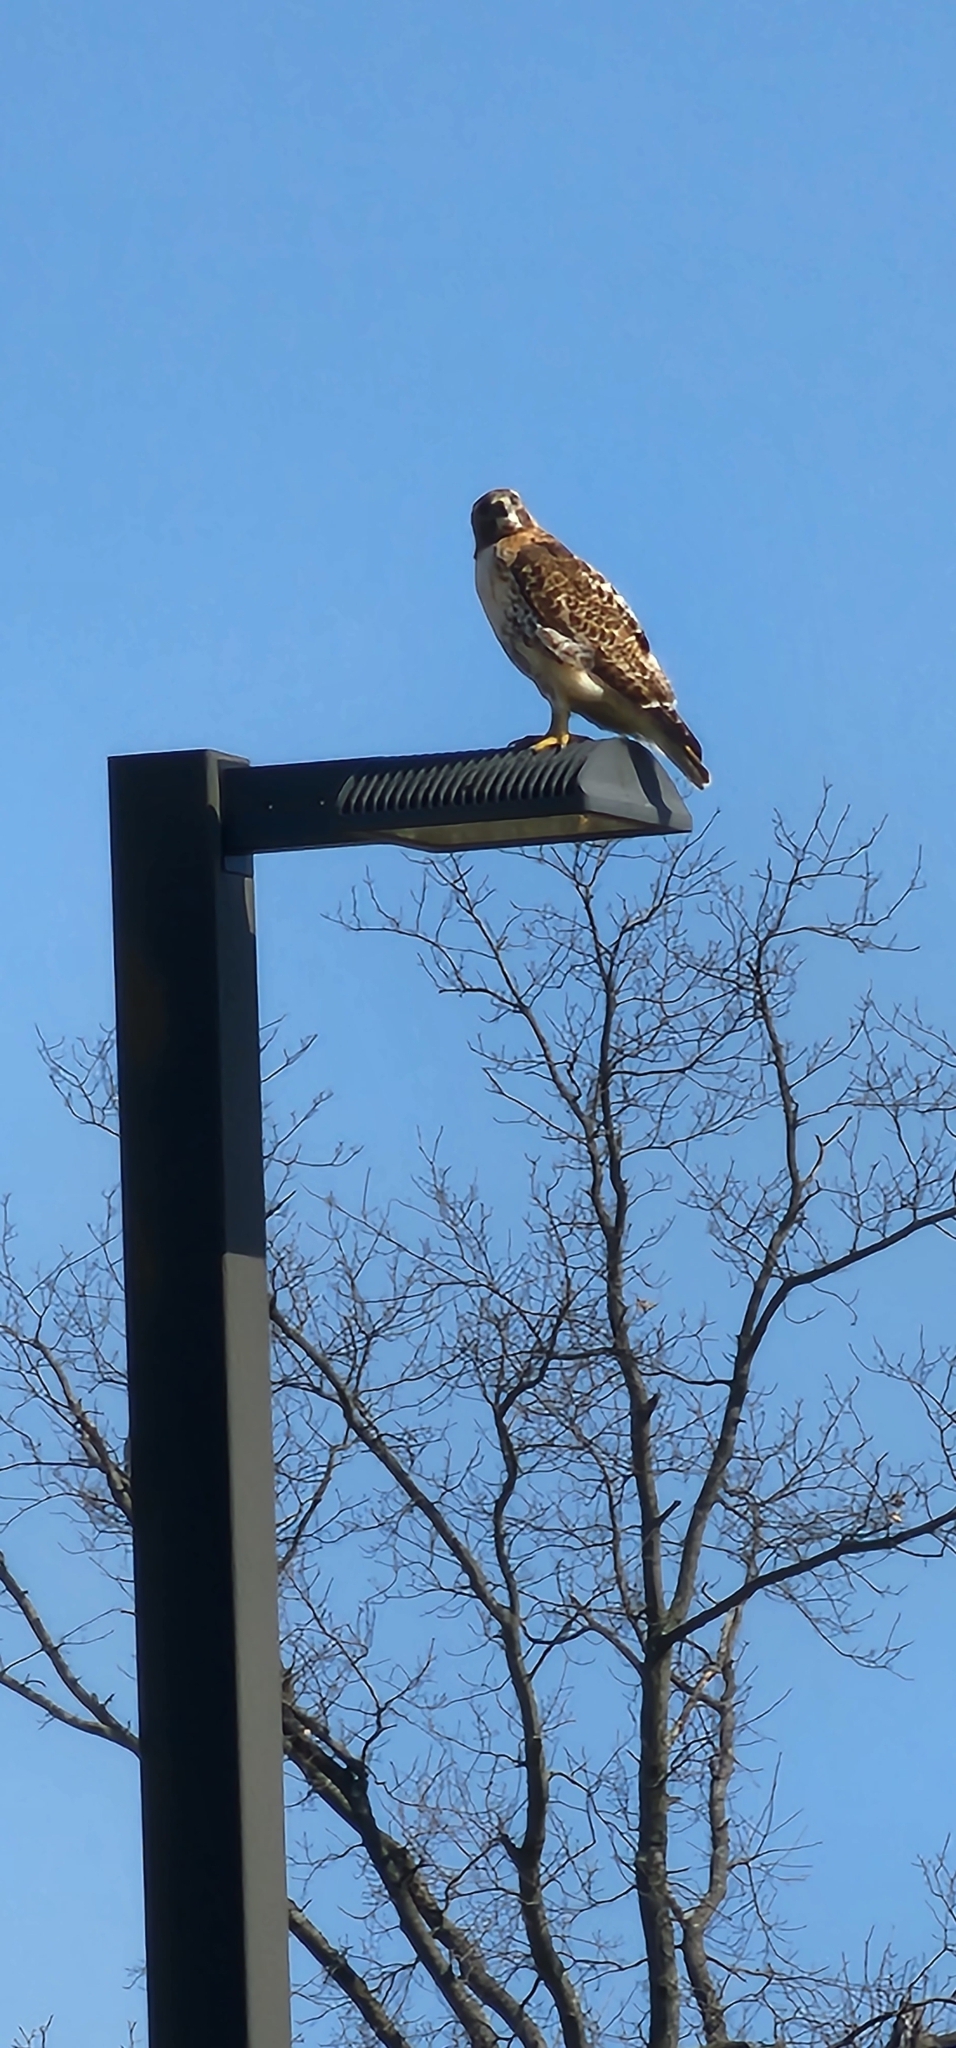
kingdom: Animalia
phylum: Chordata
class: Aves
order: Accipitriformes
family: Accipitridae
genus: Buteo
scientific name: Buteo jamaicensis
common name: Red-tailed hawk
